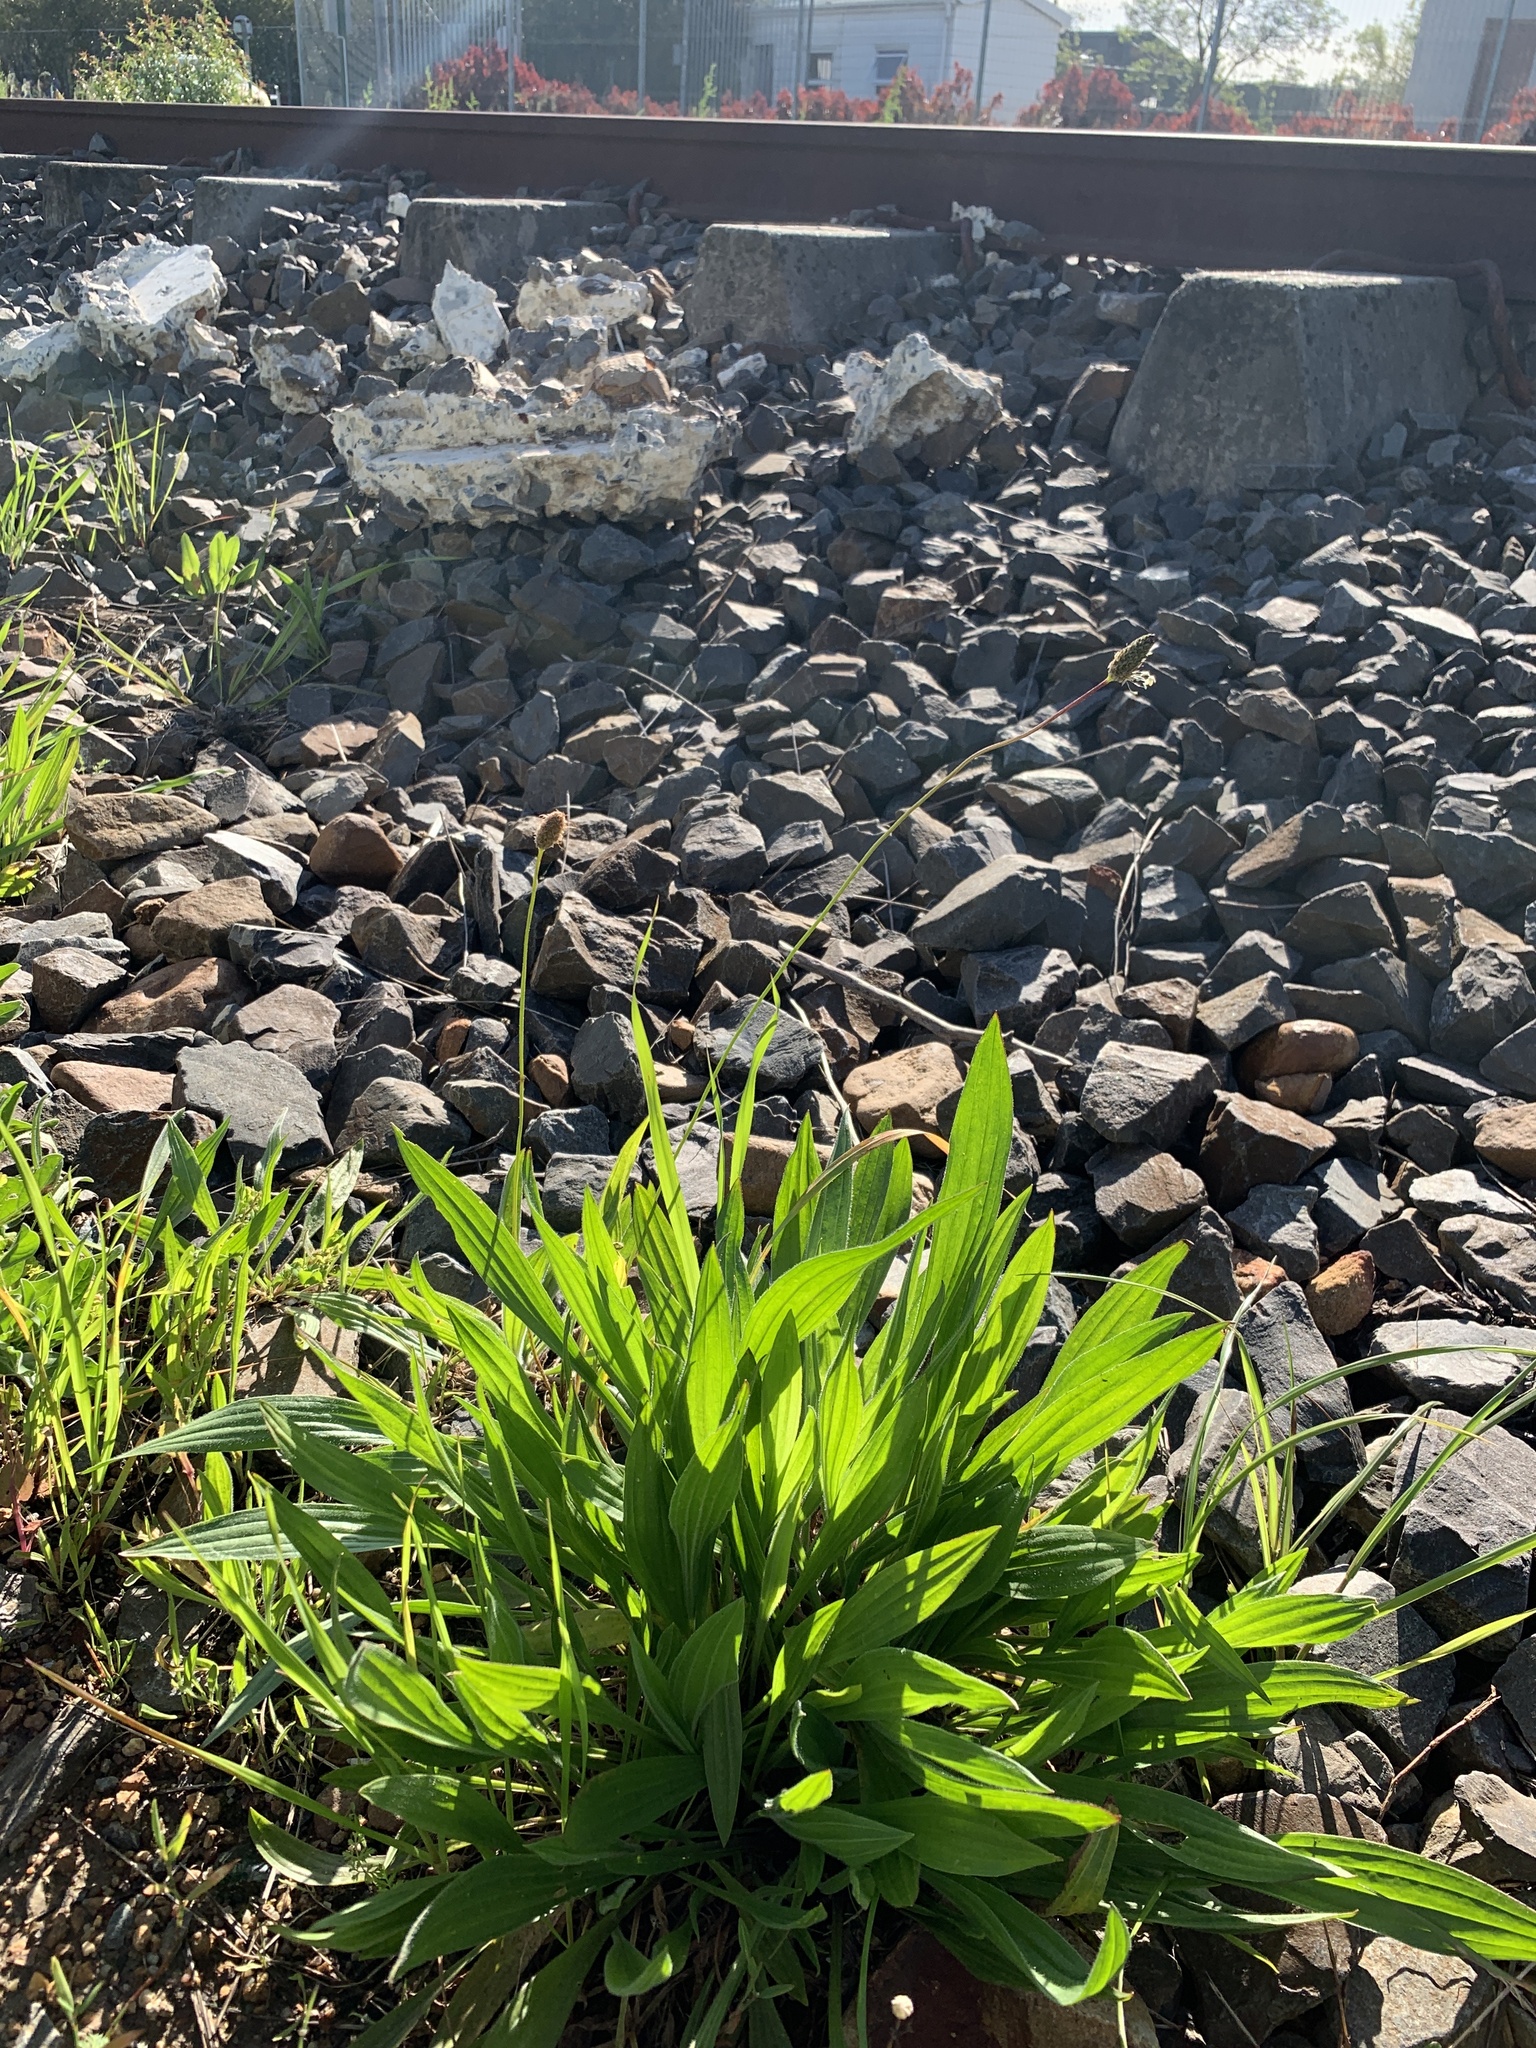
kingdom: Plantae
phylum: Tracheophyta
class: Magnoliopsida
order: Lamiales
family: Plantaginaceae
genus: Plantago
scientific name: Plantago lanceolata
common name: Ribwort plantain
